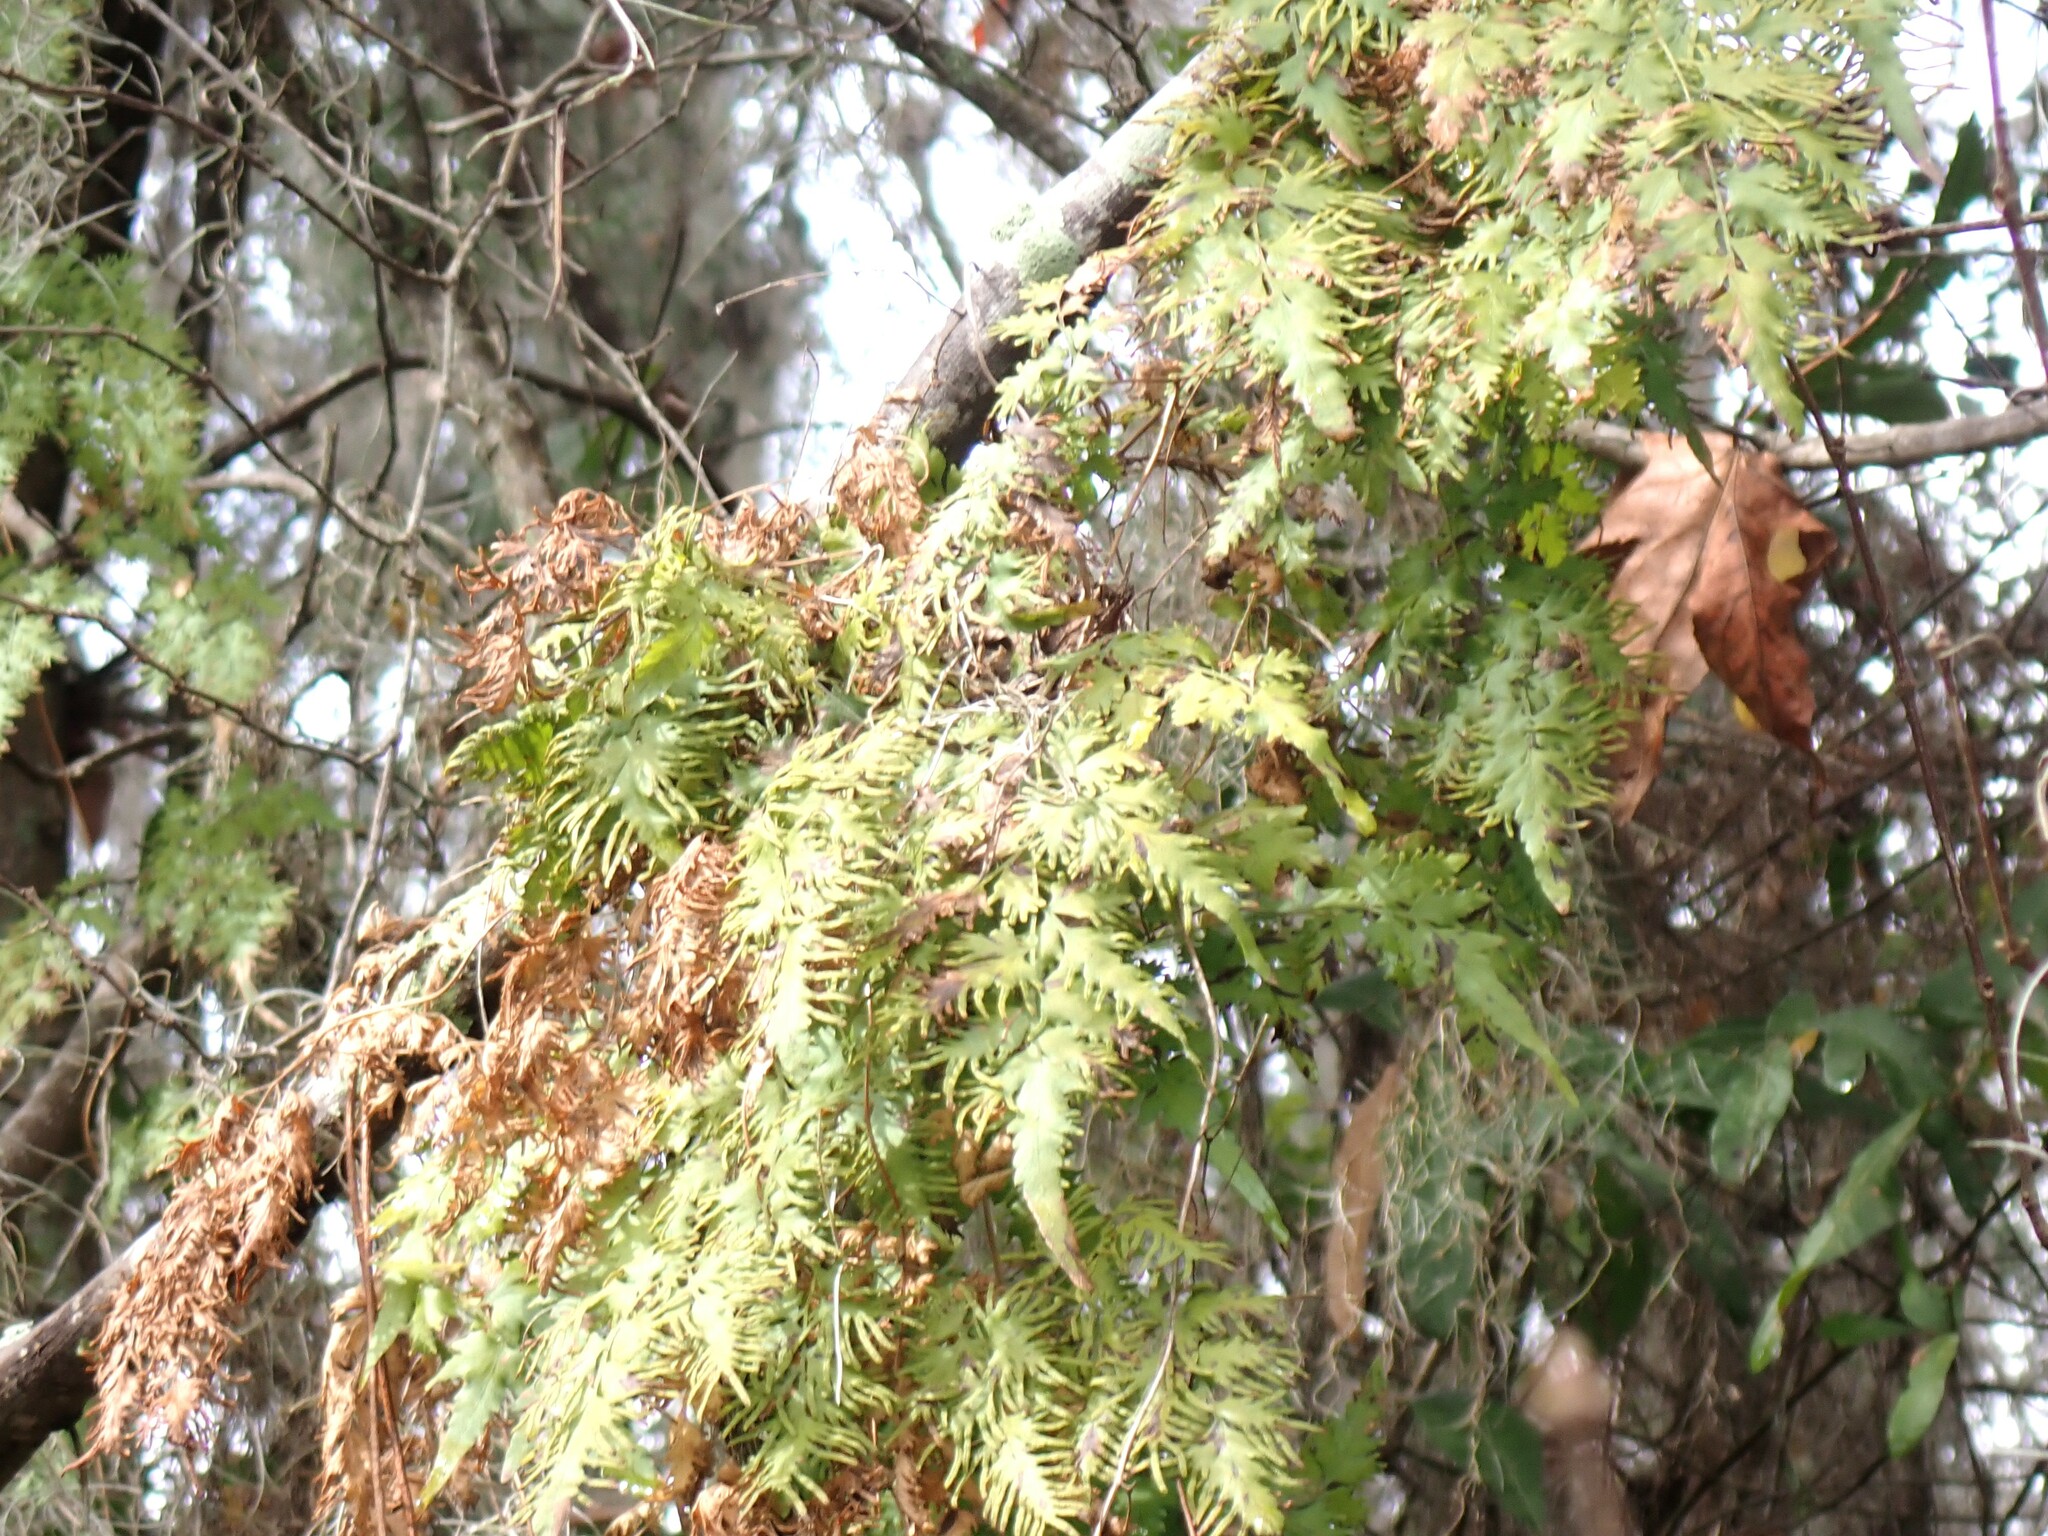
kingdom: Plantae
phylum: Tracheophyta
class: Polypodiopsida
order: Schizaeales
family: Lygodiaceae
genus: Lygodium
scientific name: Lygodium japonicum
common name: Japanese climbing fern
